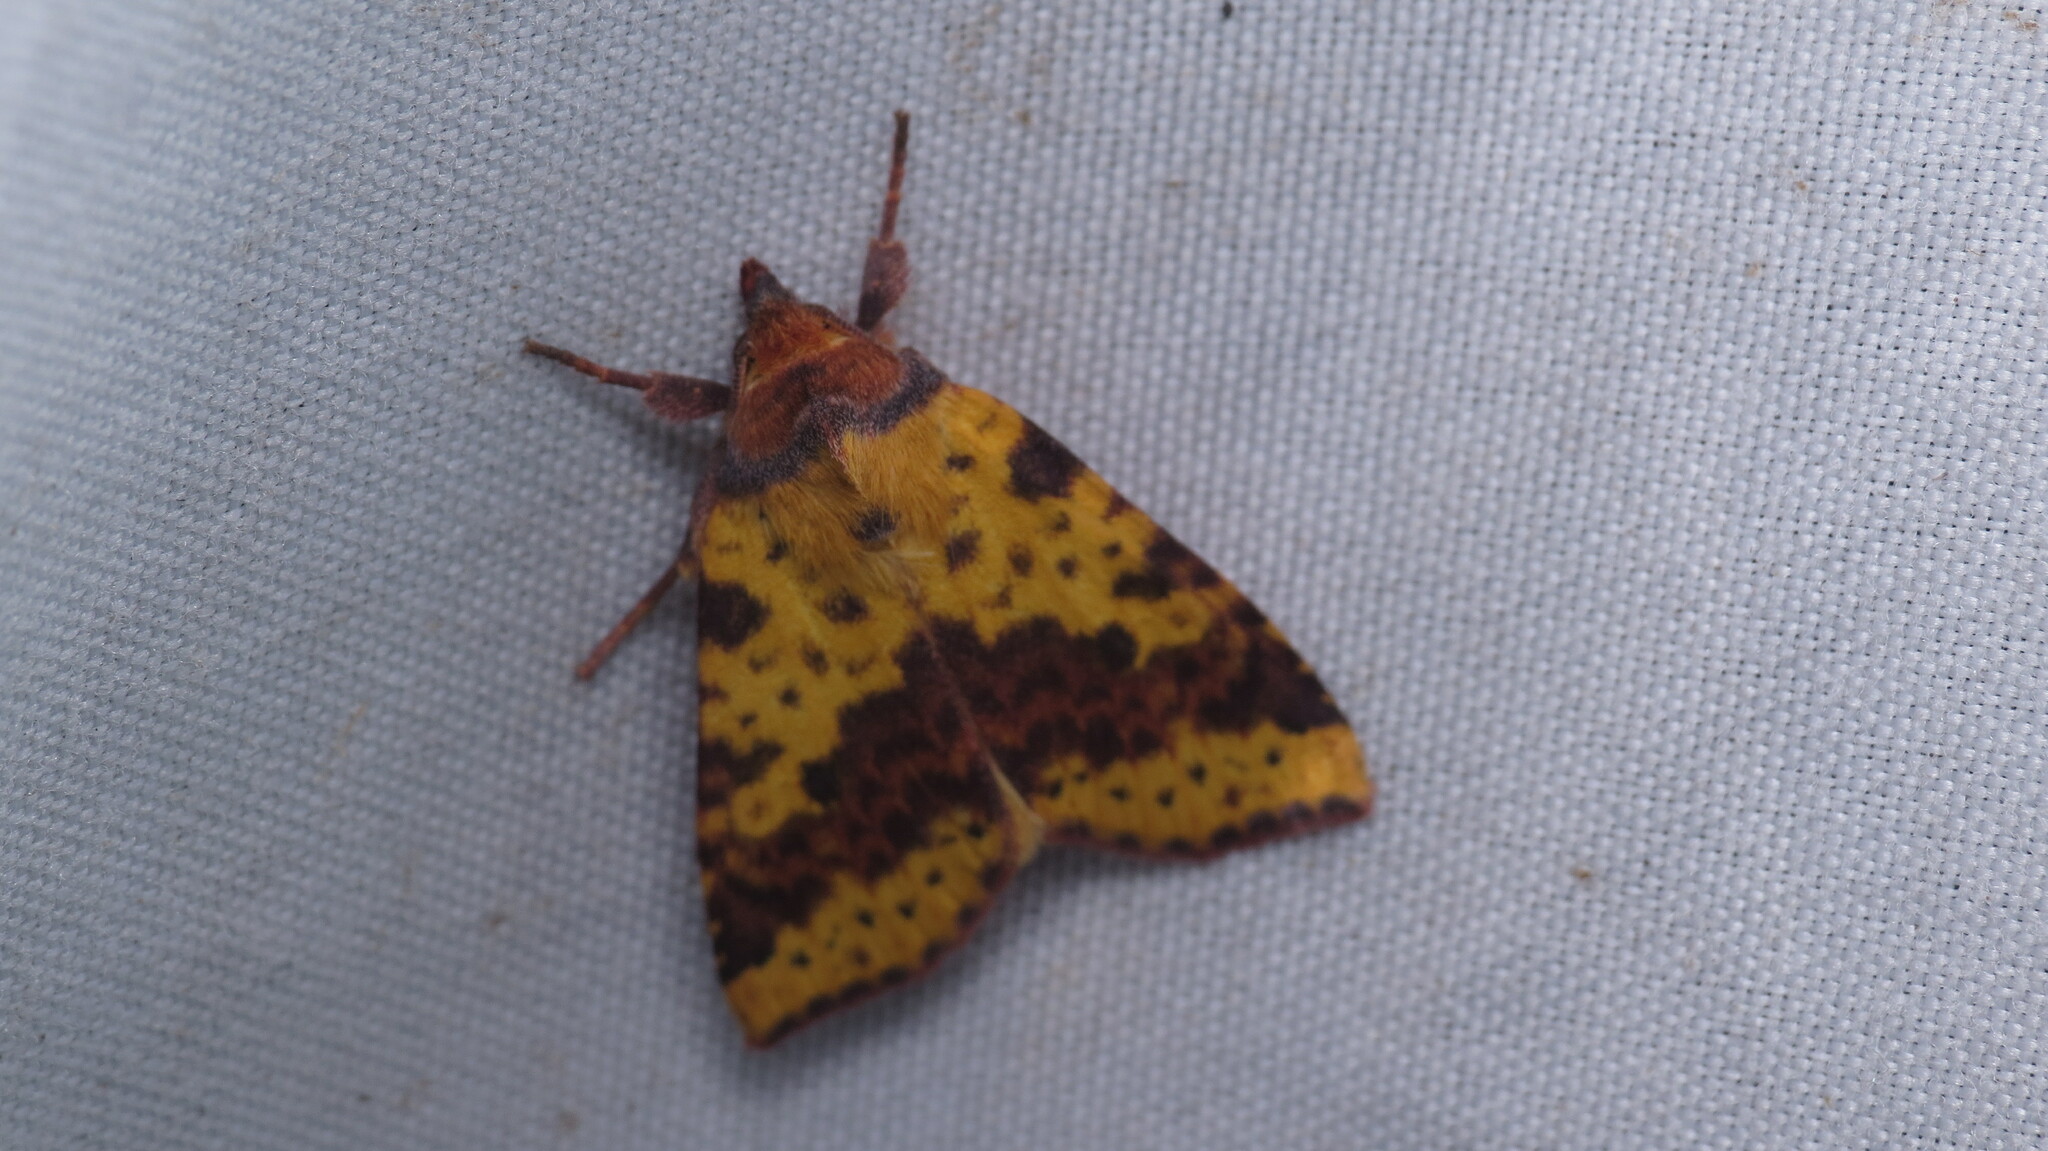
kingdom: Animalia
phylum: Arthropoda
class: Insecta
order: Lepidoptera
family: Noctuidae
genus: Xanthia
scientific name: Xanthia tatago
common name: Pink-banded sallow
